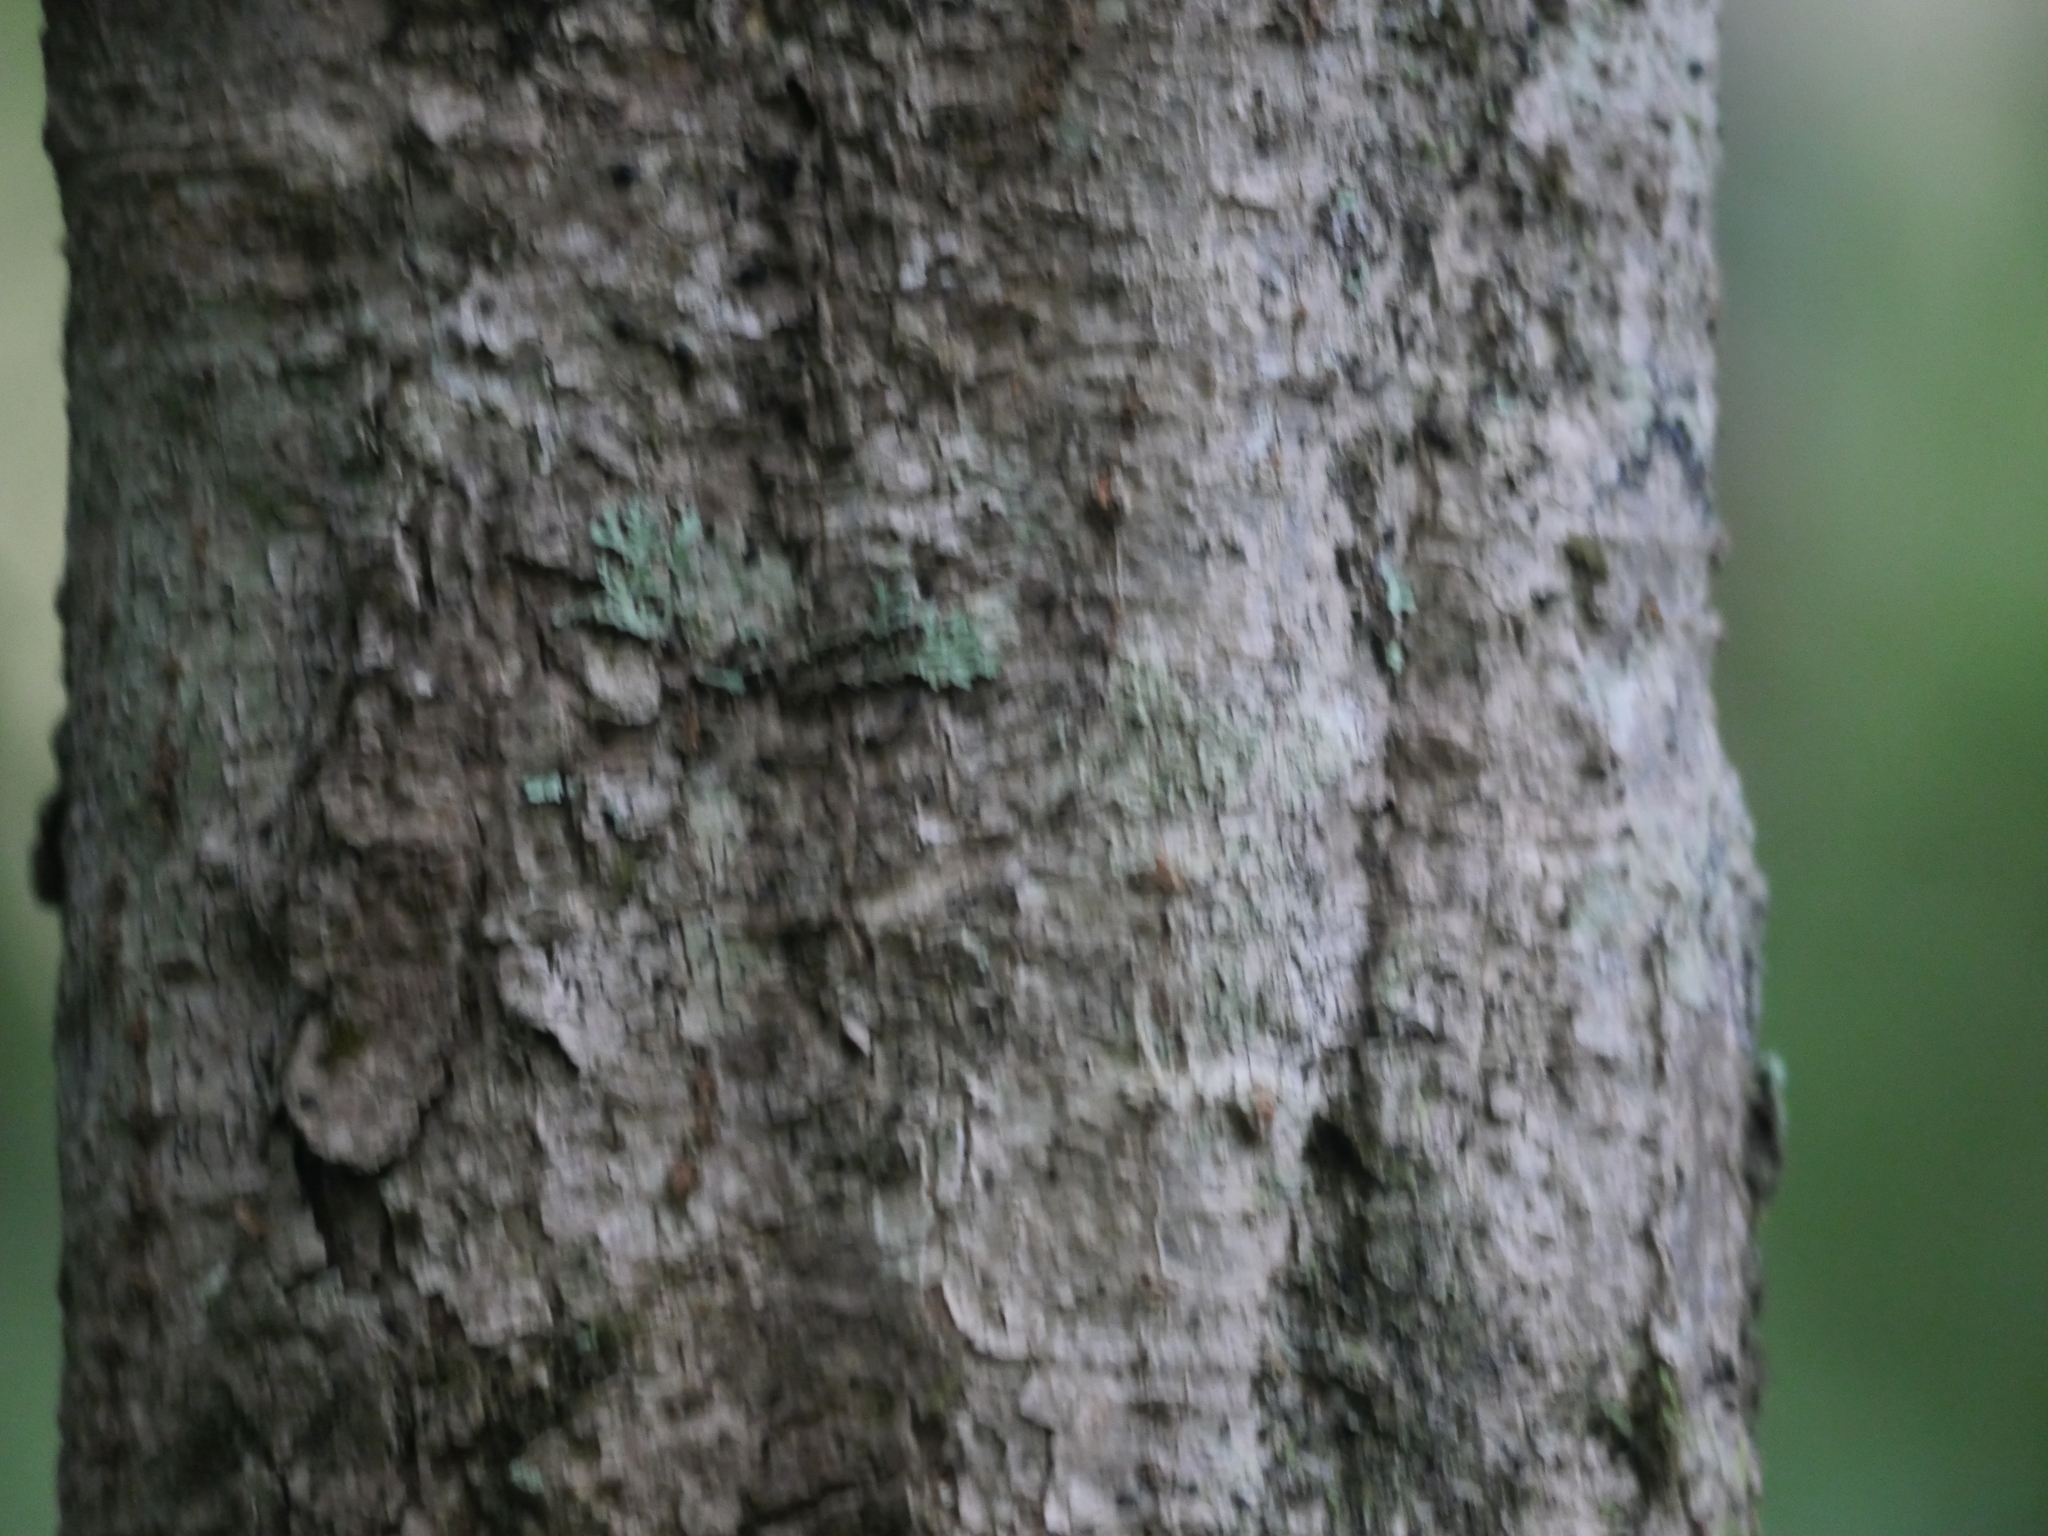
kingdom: Plantae
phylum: Tracheophyta
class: Magnoliopsida
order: Apiales
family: Araliaceae
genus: Pseudopanax
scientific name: Pseudopanax crassifolius
